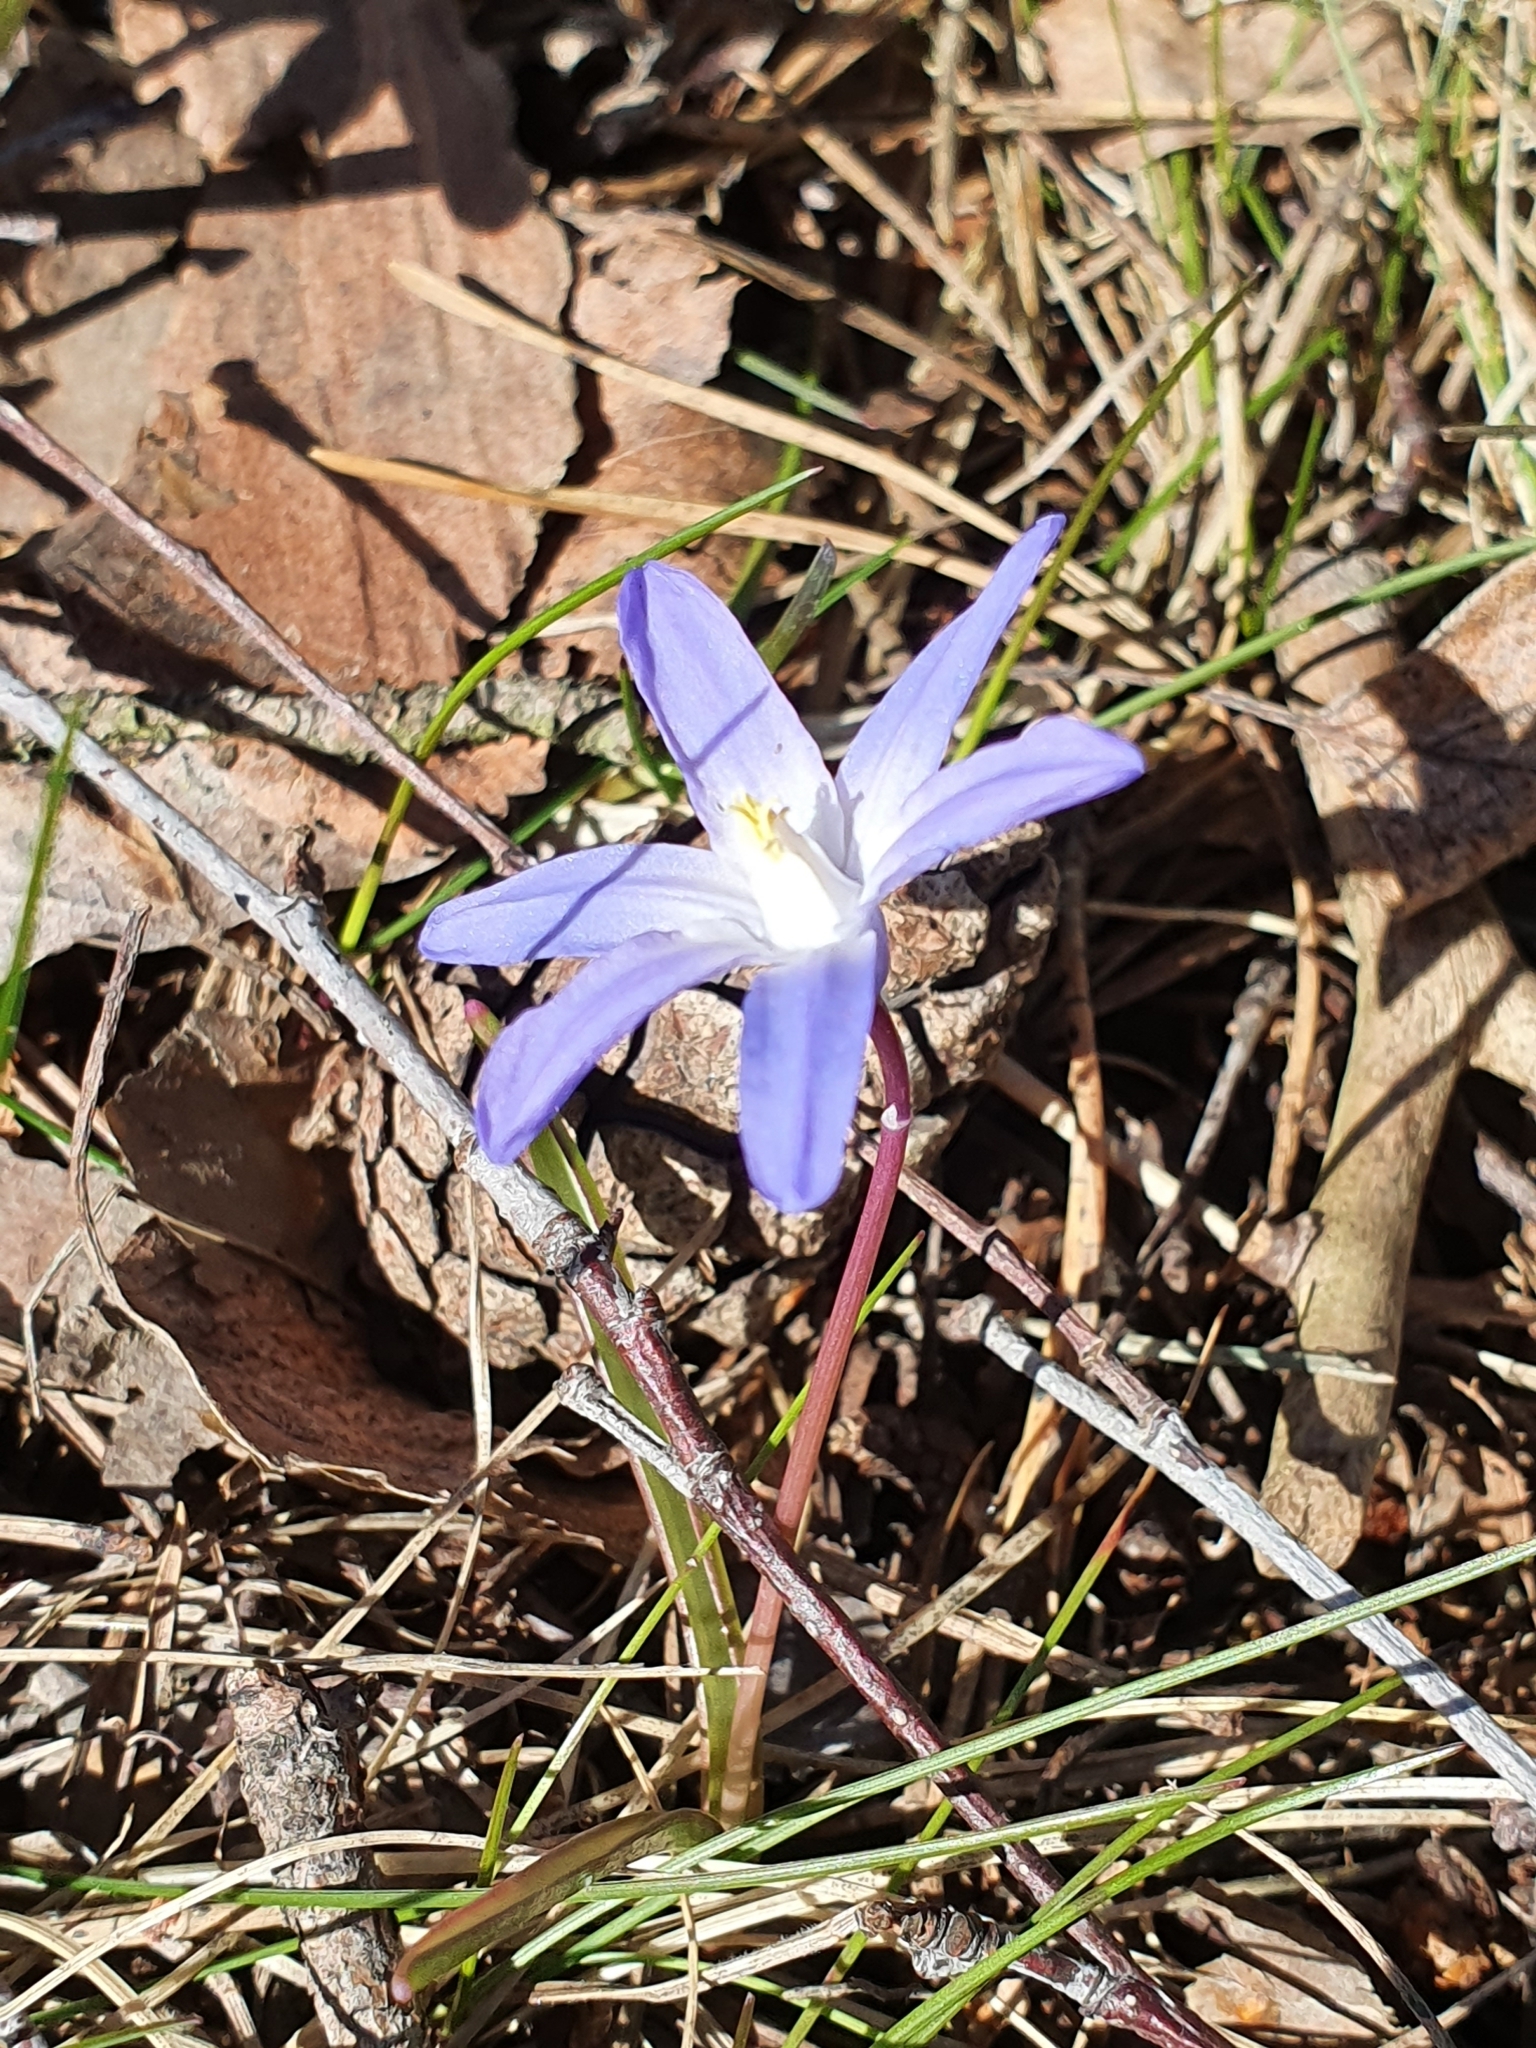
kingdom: Plantae
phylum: Tracheophyta
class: Liliopsida
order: Asparagales
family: Asparagaceae
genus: Scilla
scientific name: Scilla luciliae
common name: Boissier's glory-of-the-snow
